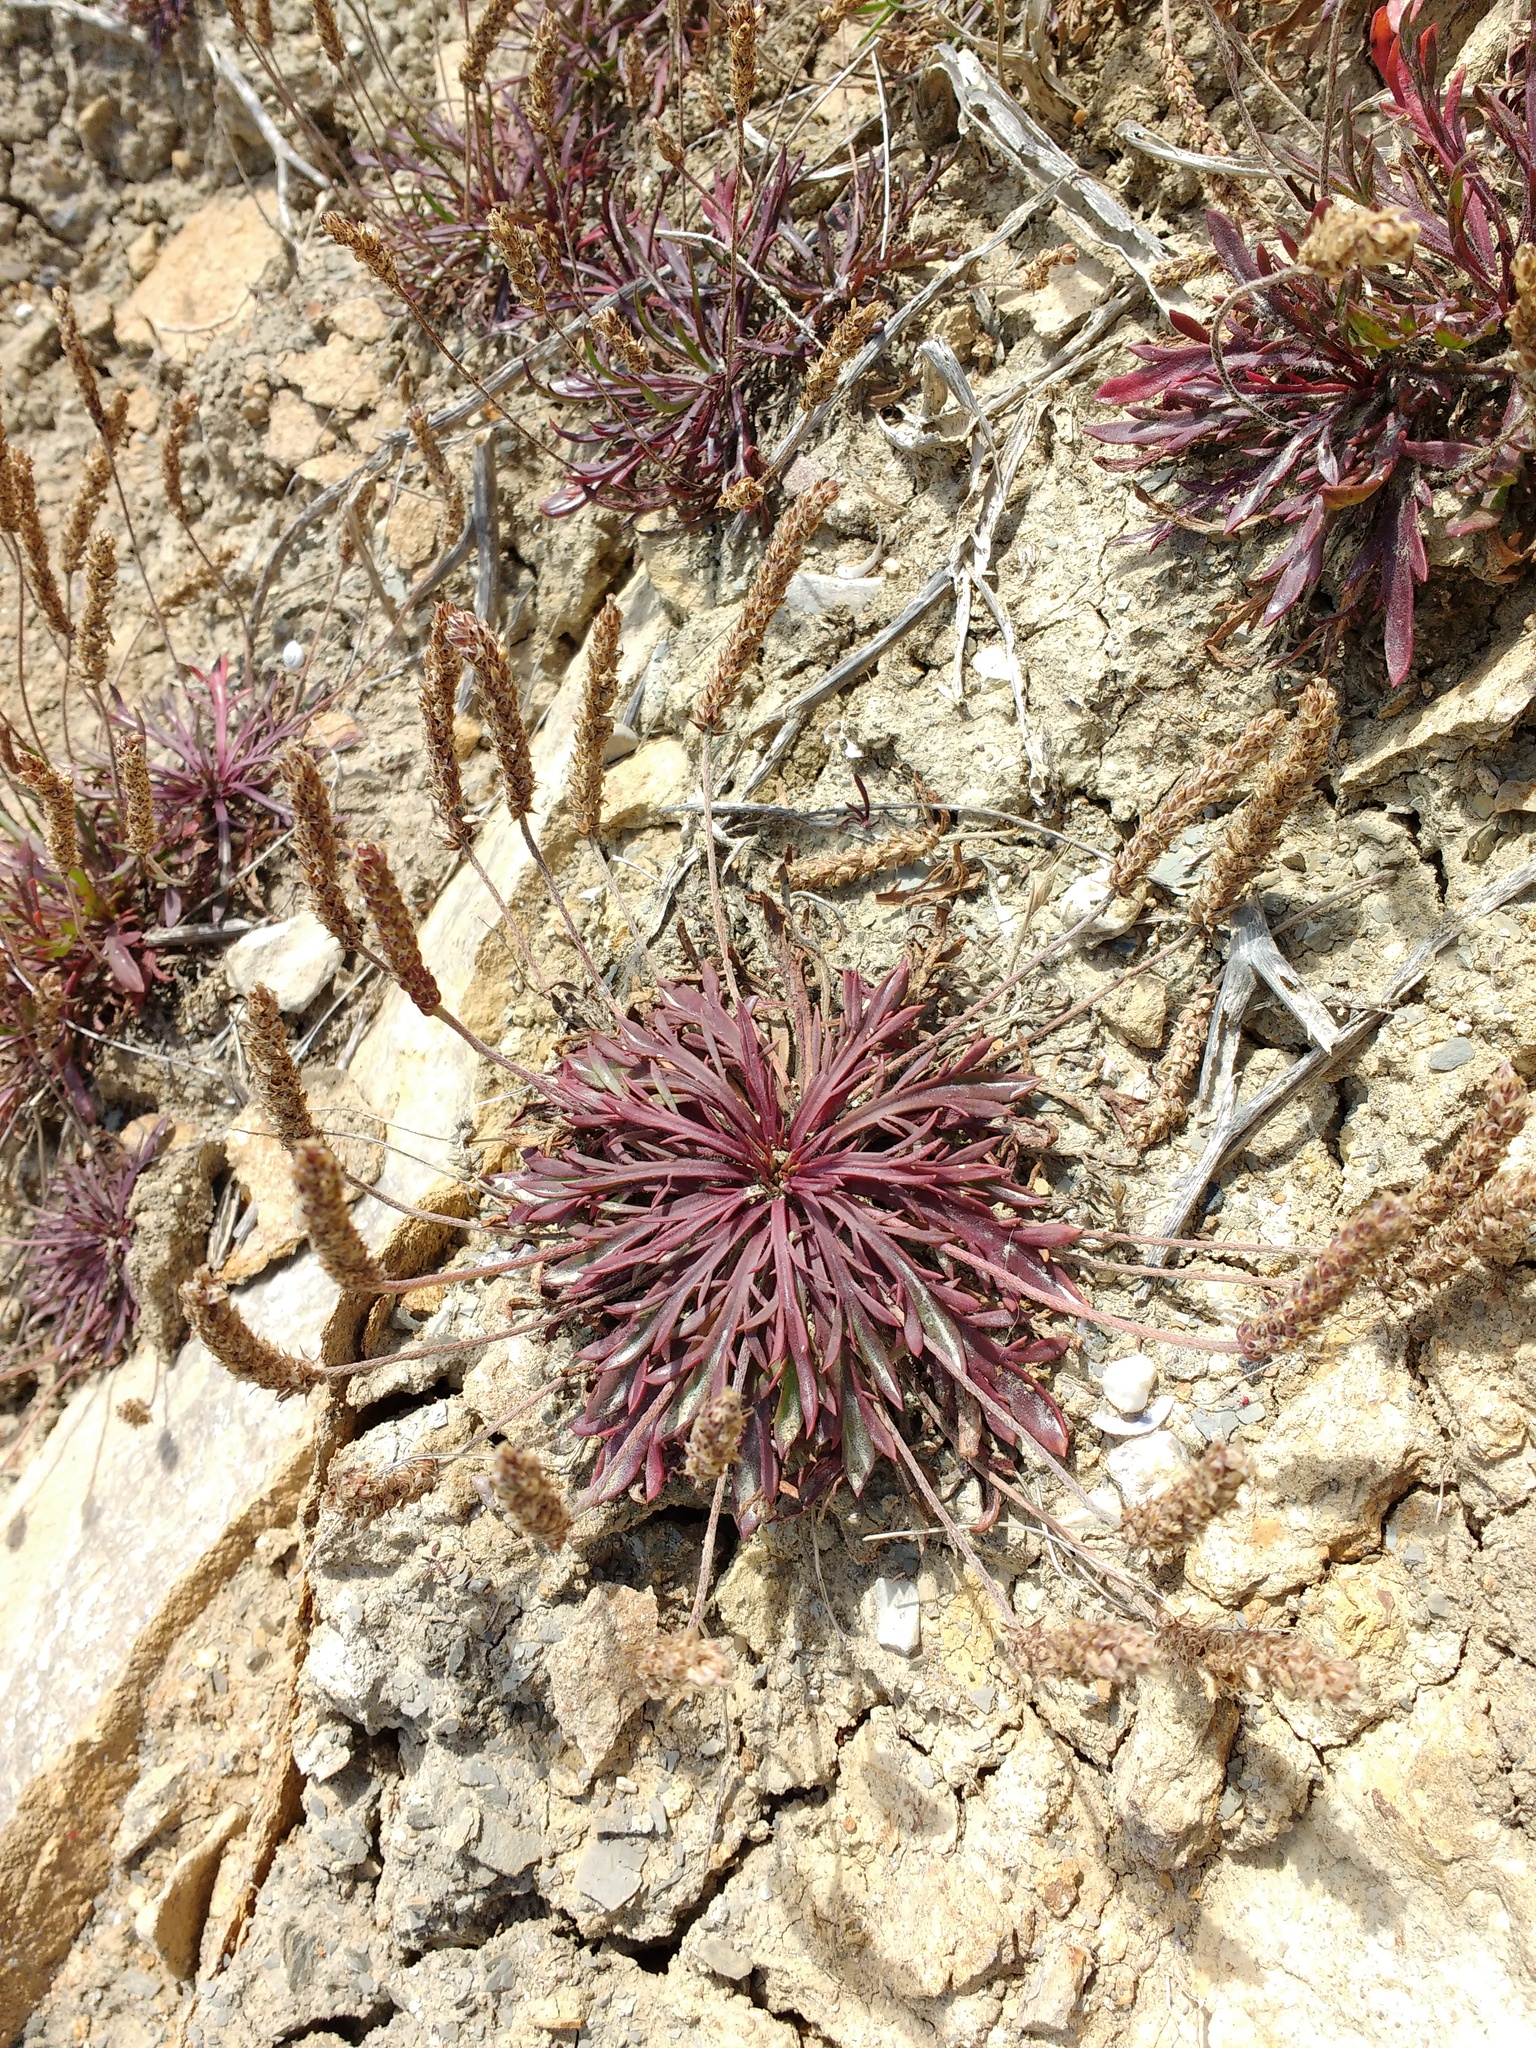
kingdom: Plantae
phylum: Tracheophyta
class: Magnoliopsida
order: Lamiales
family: Plantaginaceae
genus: Plantago
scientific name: Plantago coronopus
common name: Buck's-horn plantain
